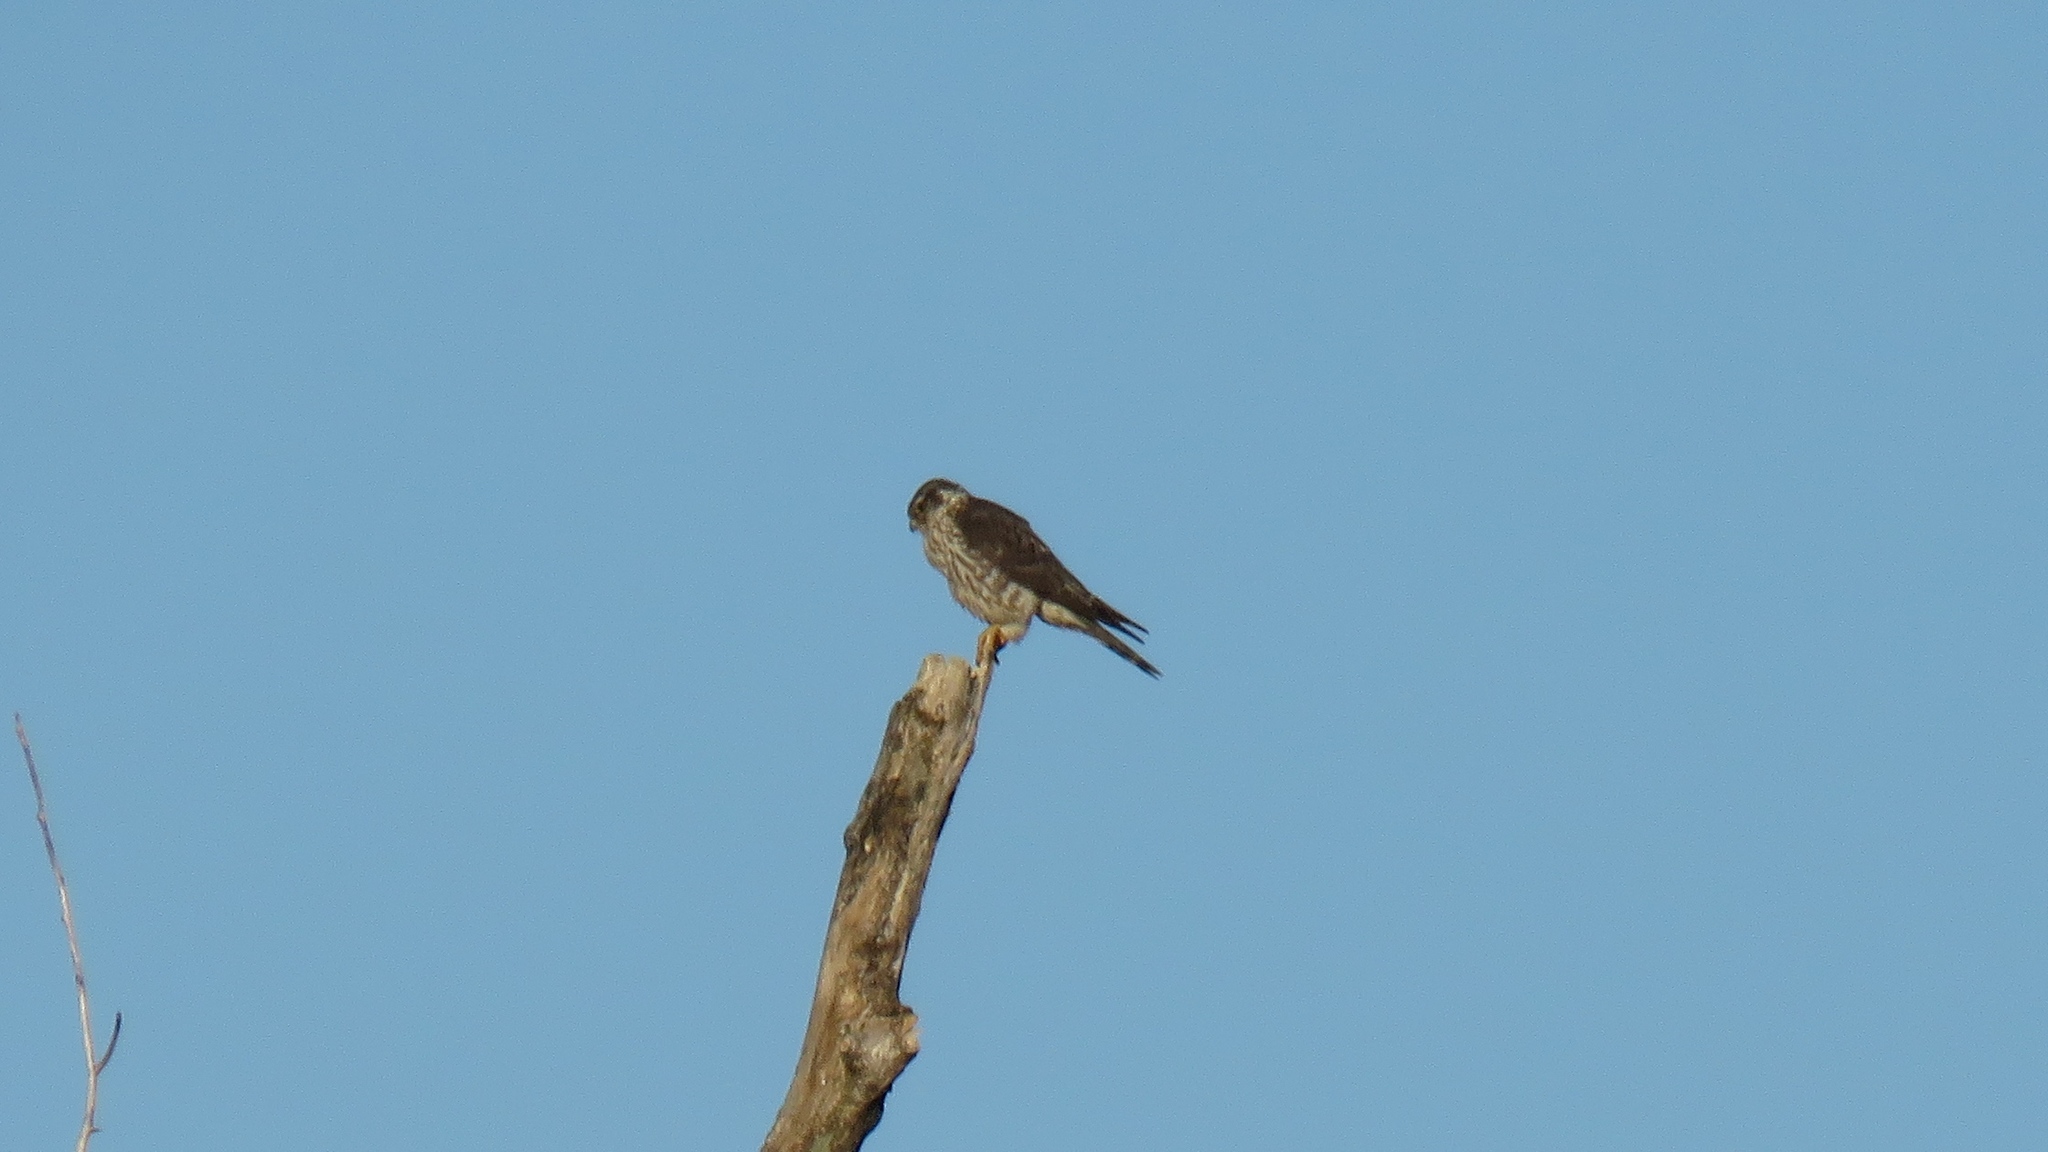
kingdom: Animalia
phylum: Chordata
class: Aves
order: Falconiformes
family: Falconidae
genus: Falco
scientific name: Falco columbarius
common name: Merlin
